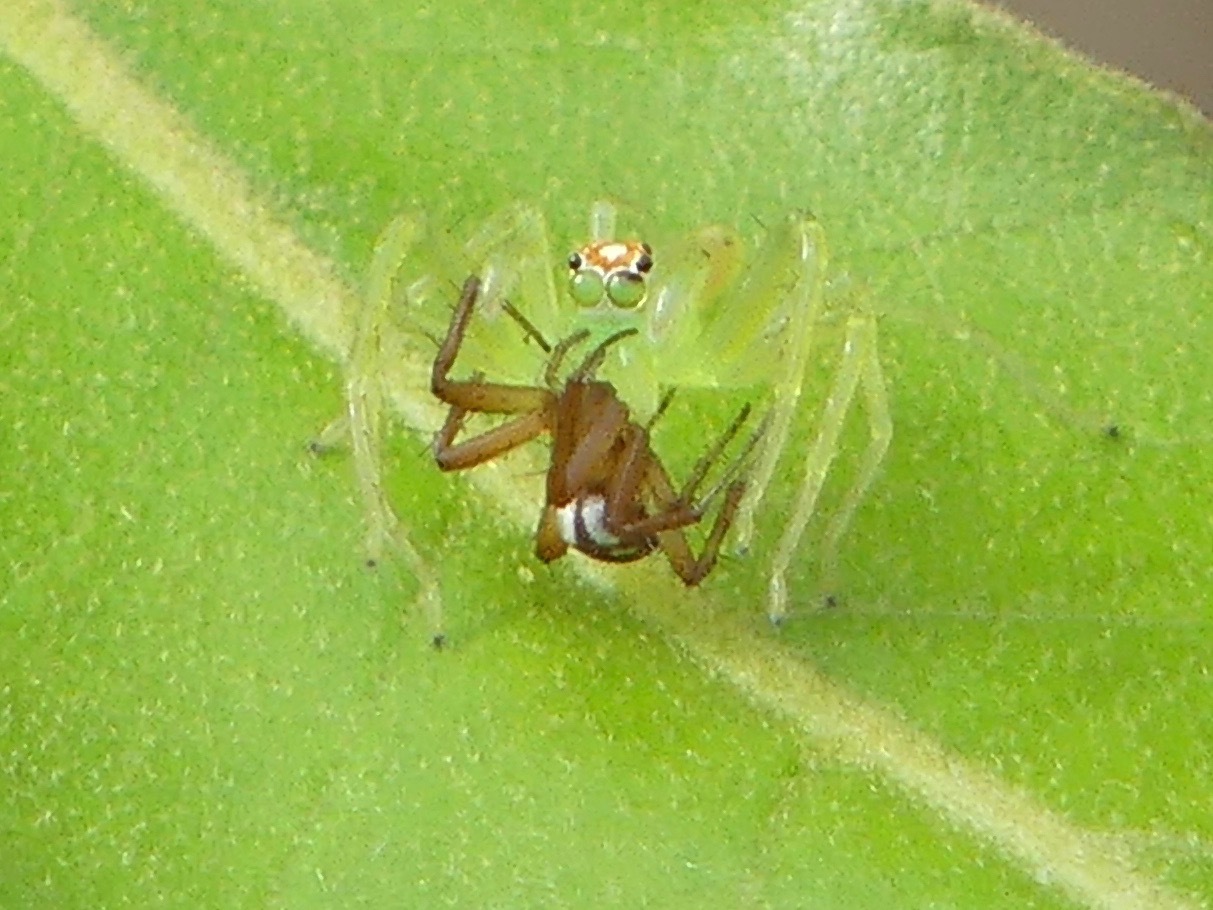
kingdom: Animalia
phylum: Arthropoda
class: Arachnida
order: Araneae
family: Araneidae
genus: Mangora
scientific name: Mangora placida
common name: Tuft-legged orbweaver
